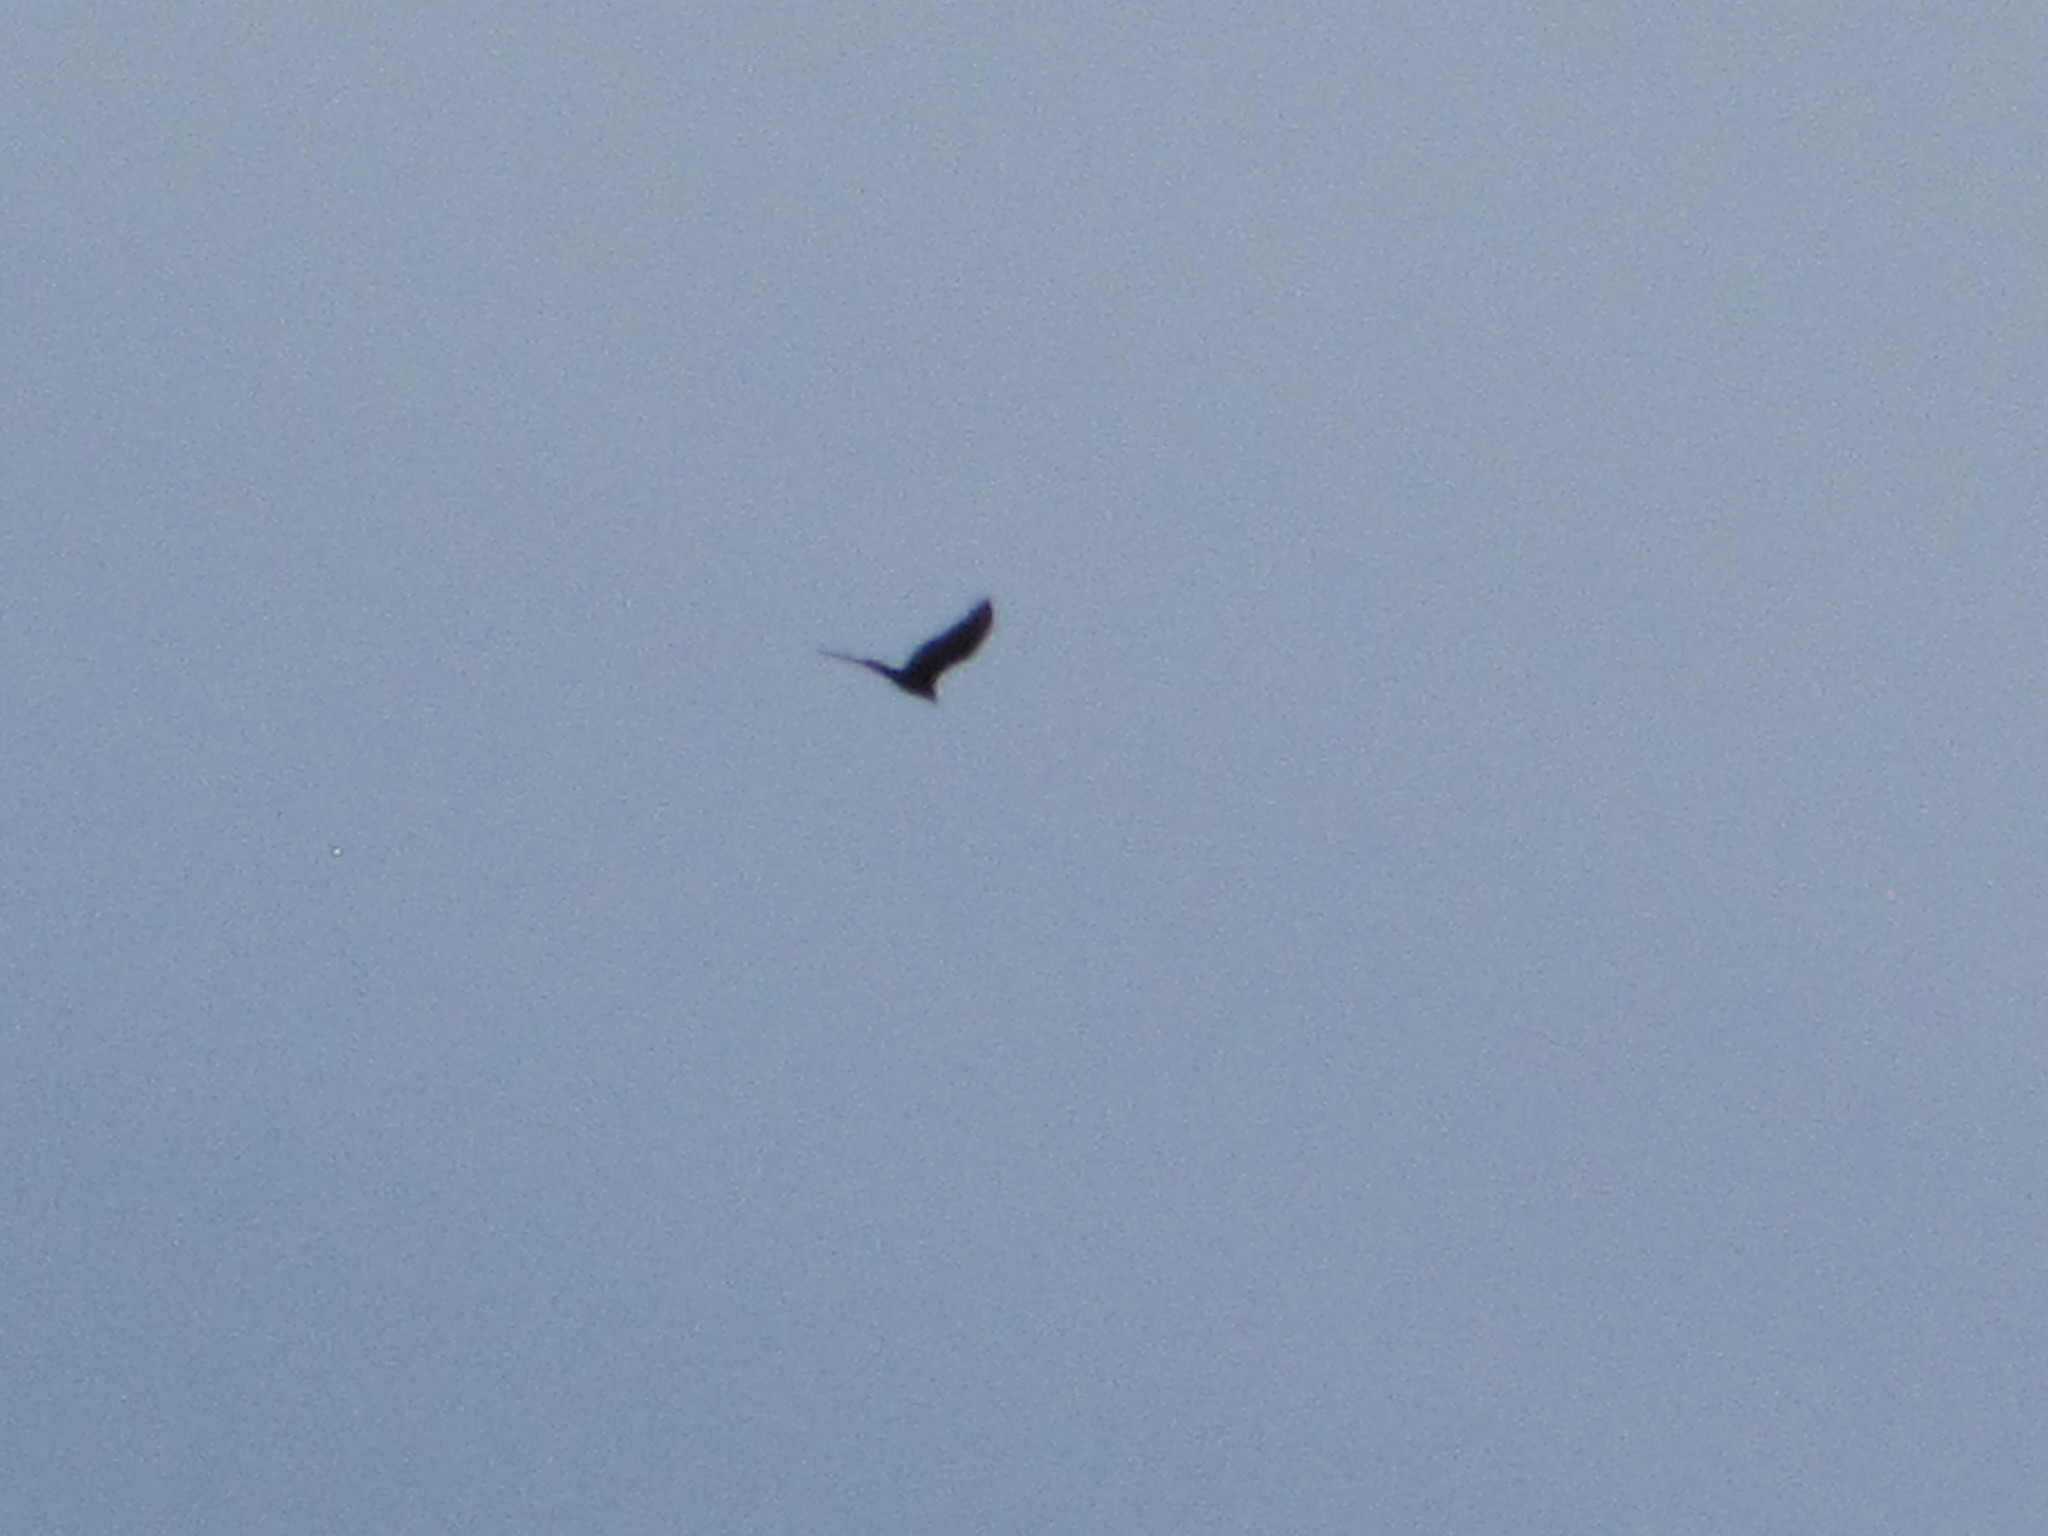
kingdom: Animalia
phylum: Chordata
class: Aves
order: Accipitriformes
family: Cathartidae
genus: Cathartes
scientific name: Cathartes aura
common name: Turkey vulture
